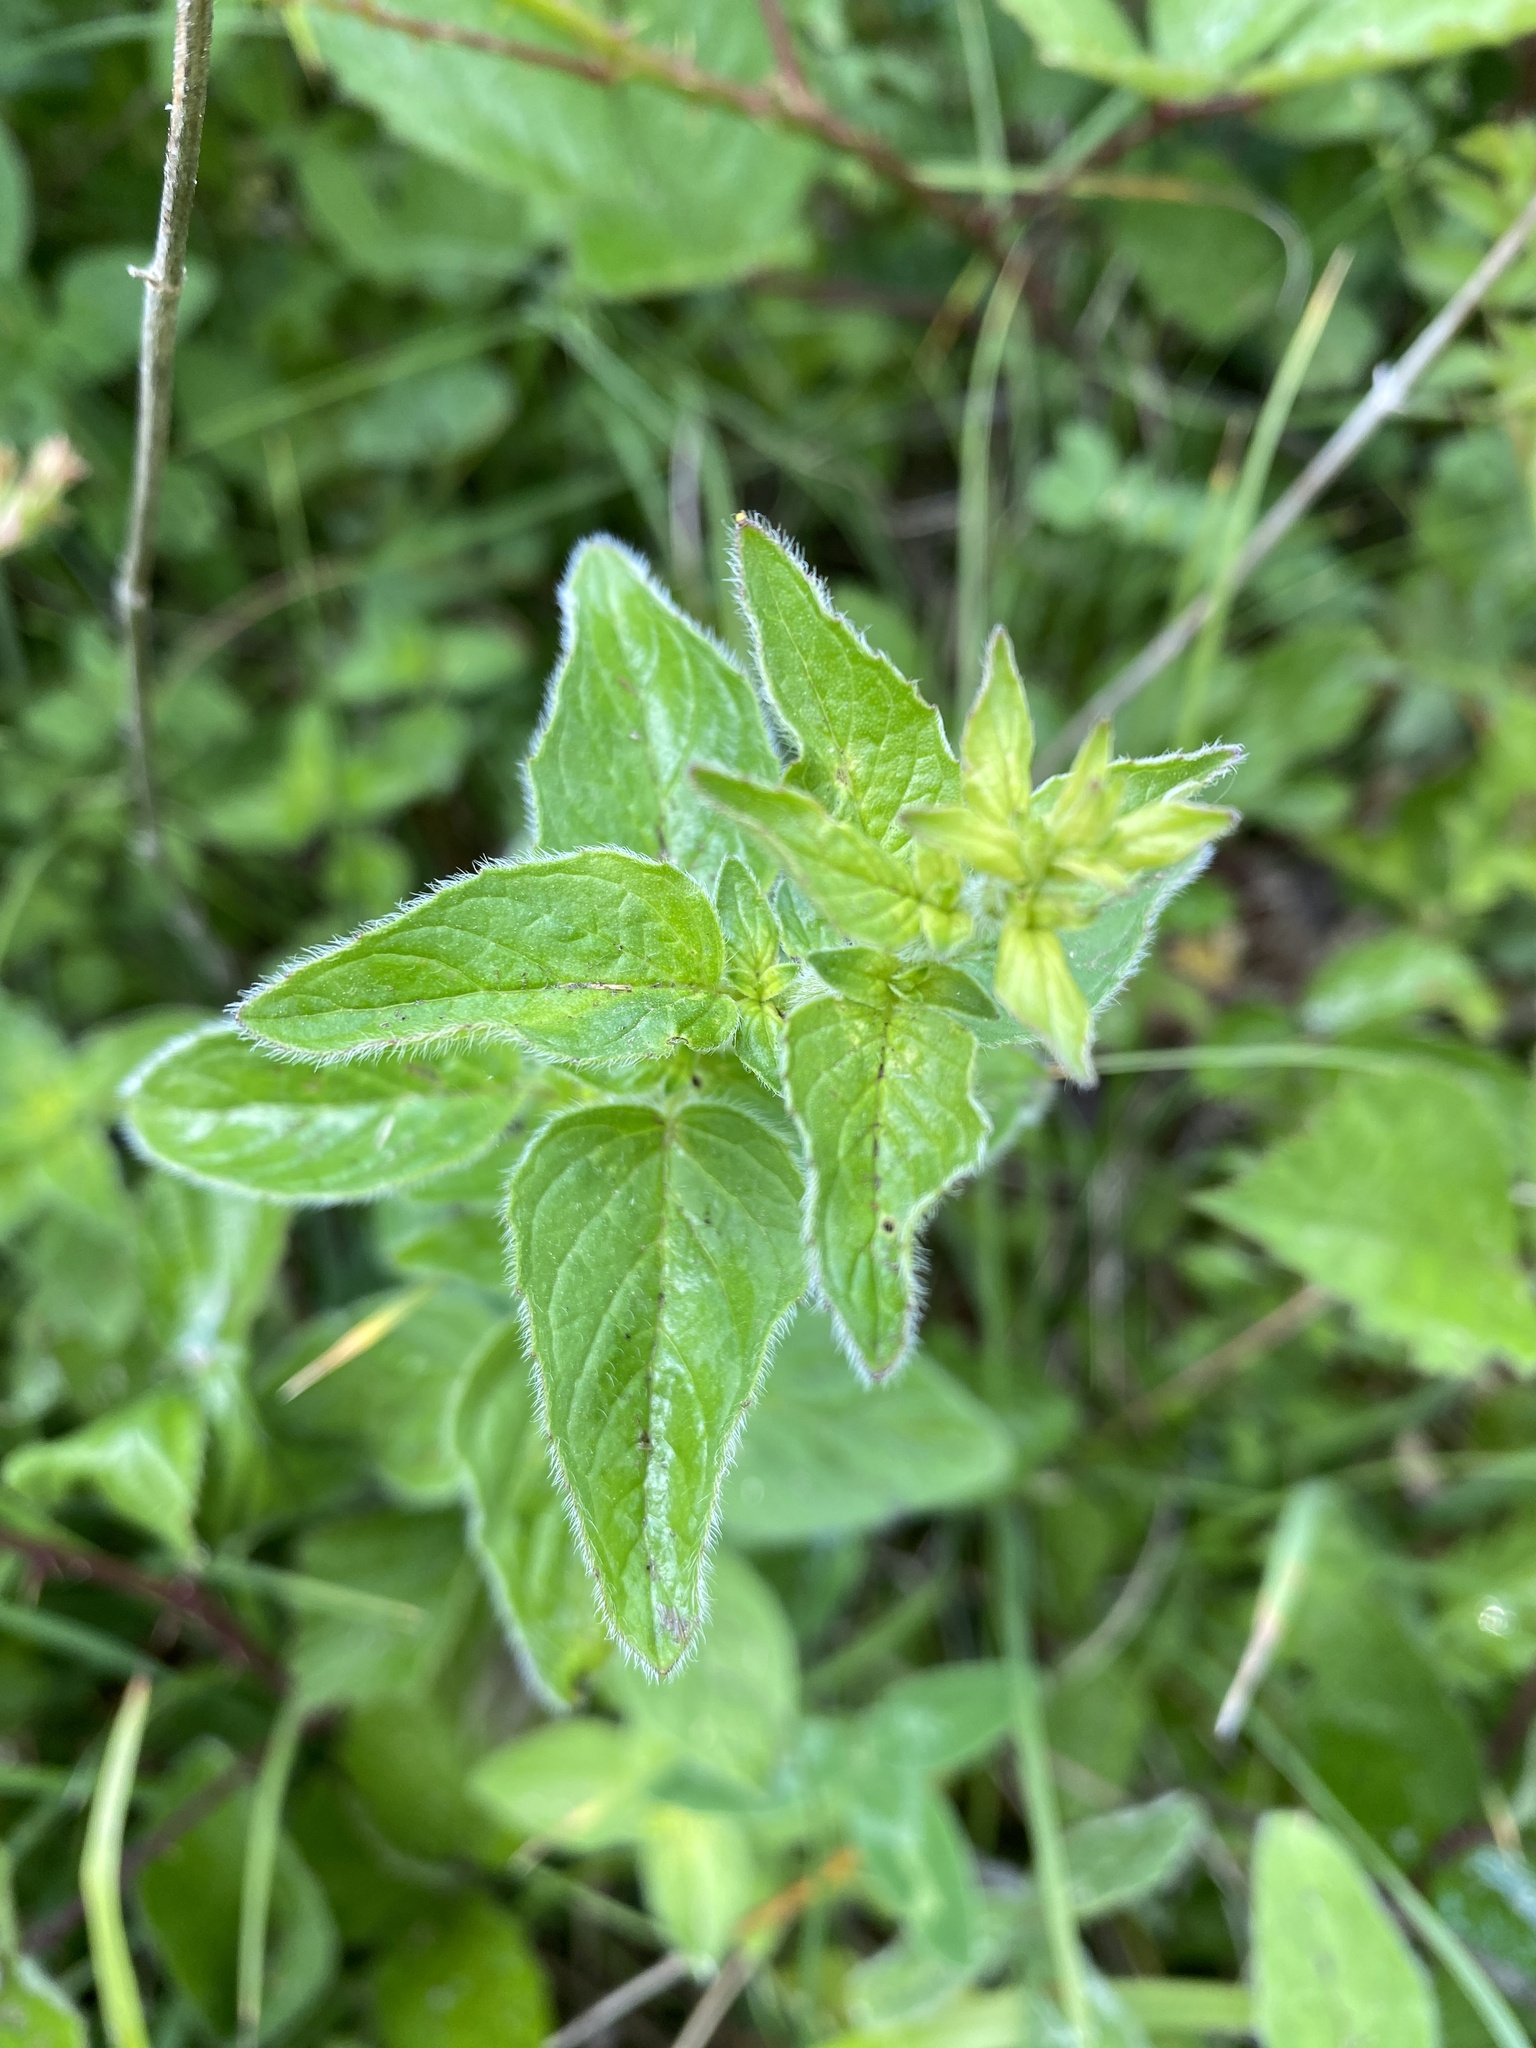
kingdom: Plantae
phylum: Tracheophyta
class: Magnoliopsida
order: Lamiales
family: Lamiaceae
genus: Origanum
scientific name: Origanum vulgare
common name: Wild marjoram
